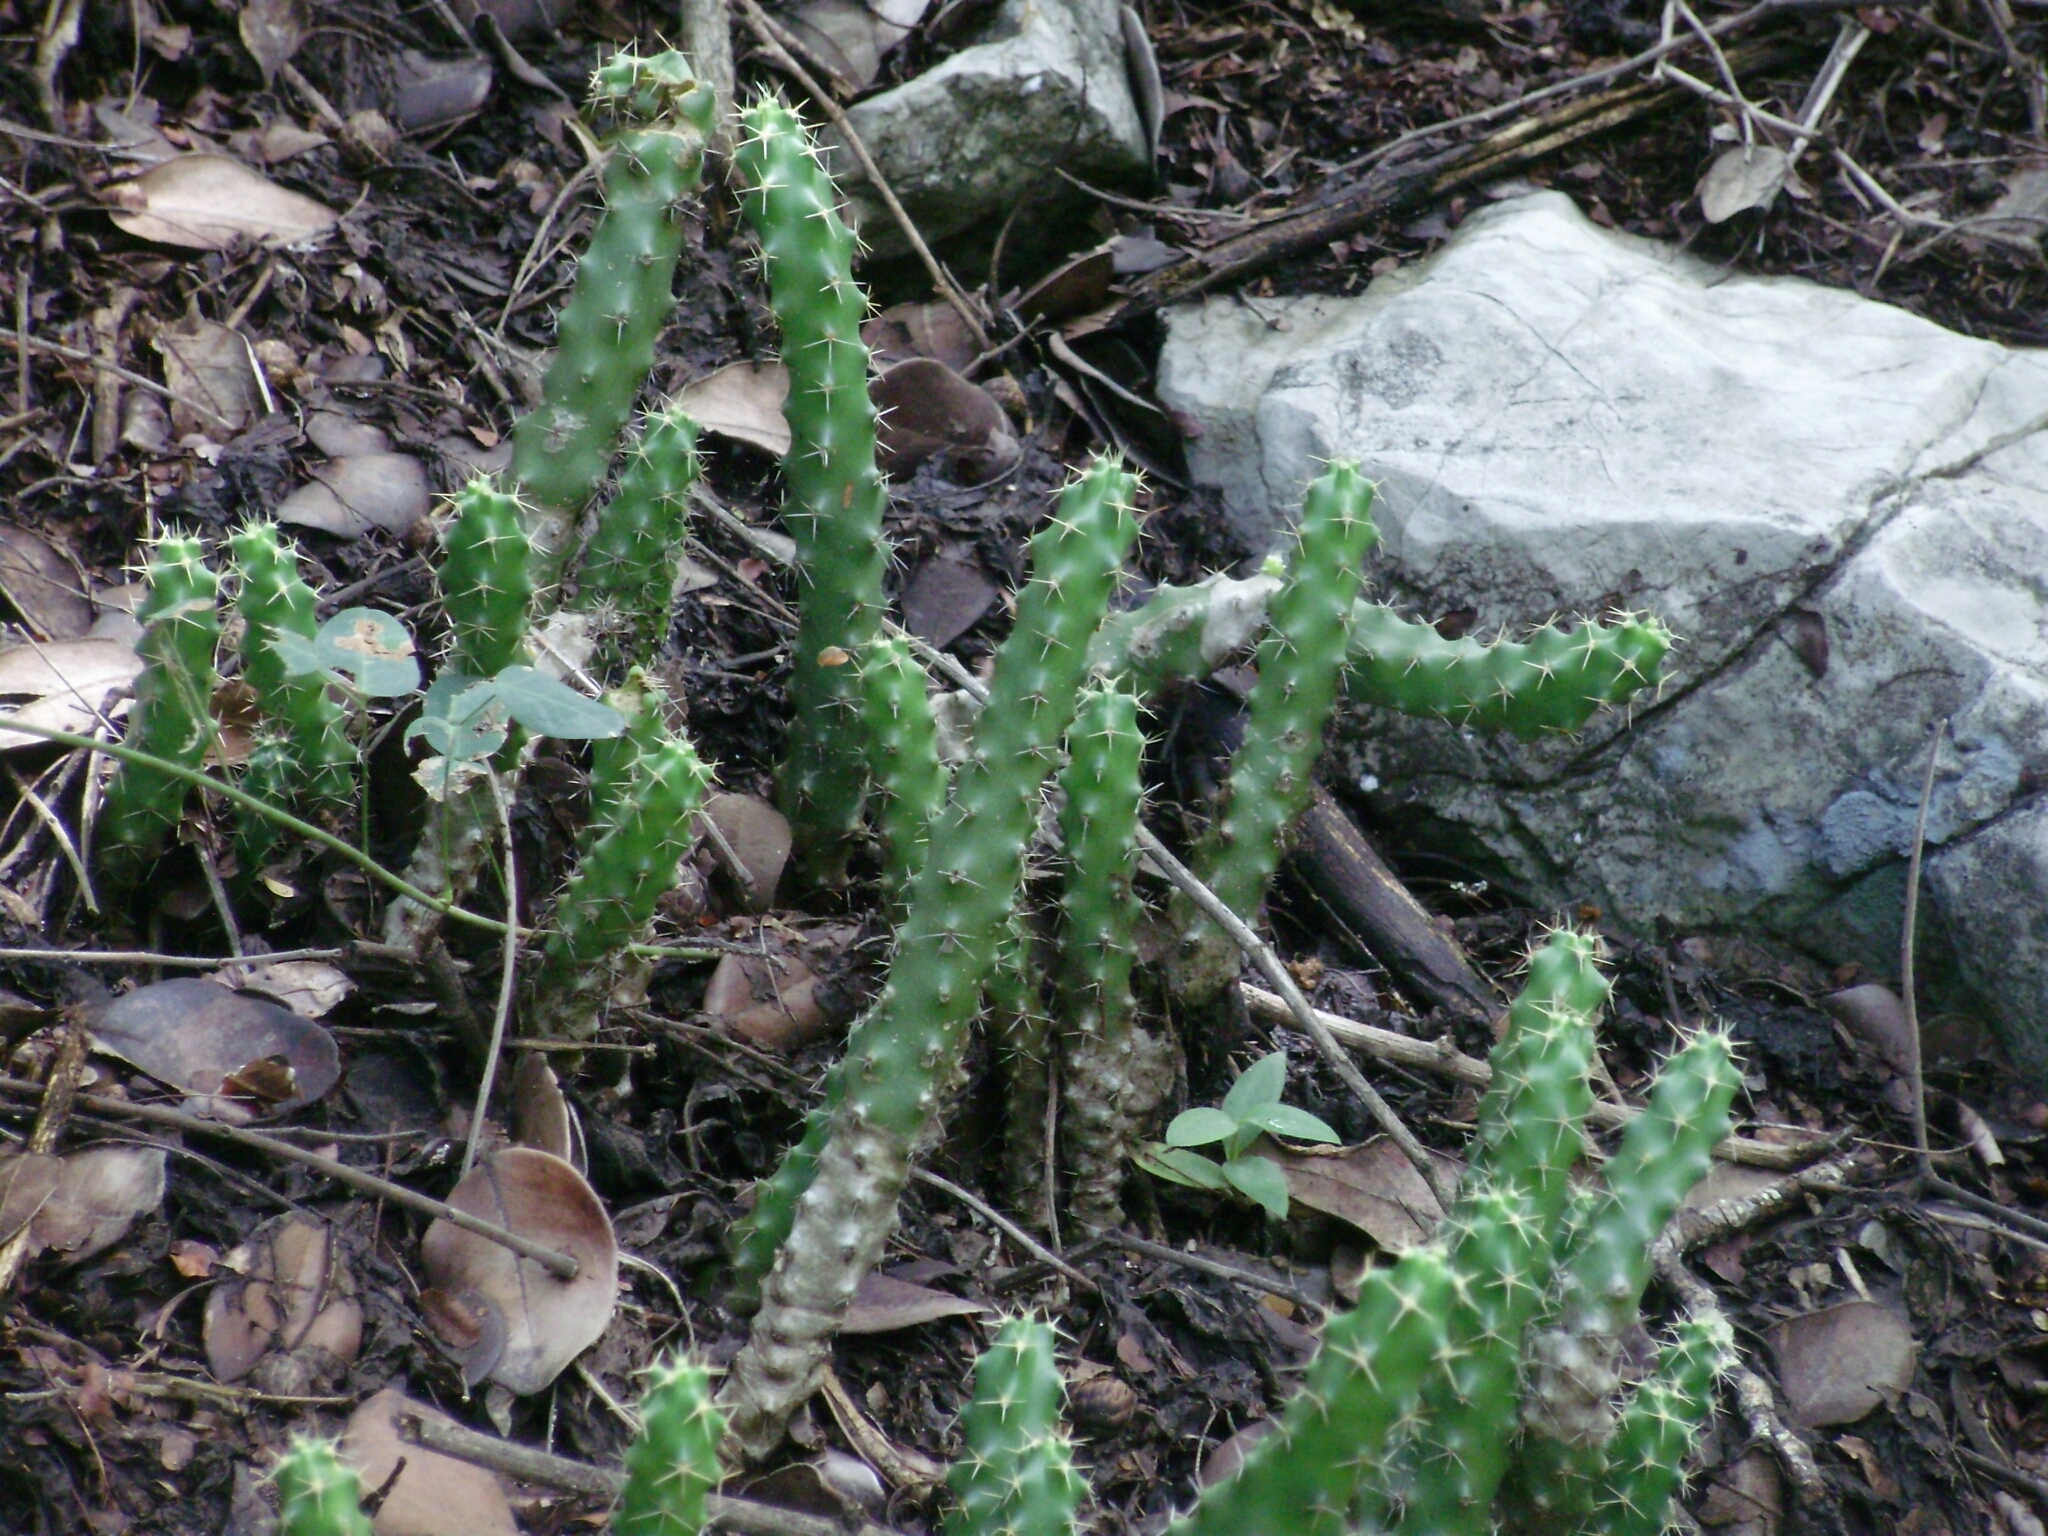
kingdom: Plantae
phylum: Tracheophyta
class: Magnoliopsida
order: Caryophyllales
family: Cactaceae
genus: Echinocereus
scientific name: Echinocereus pentalophus
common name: Ladyfinger cactus
